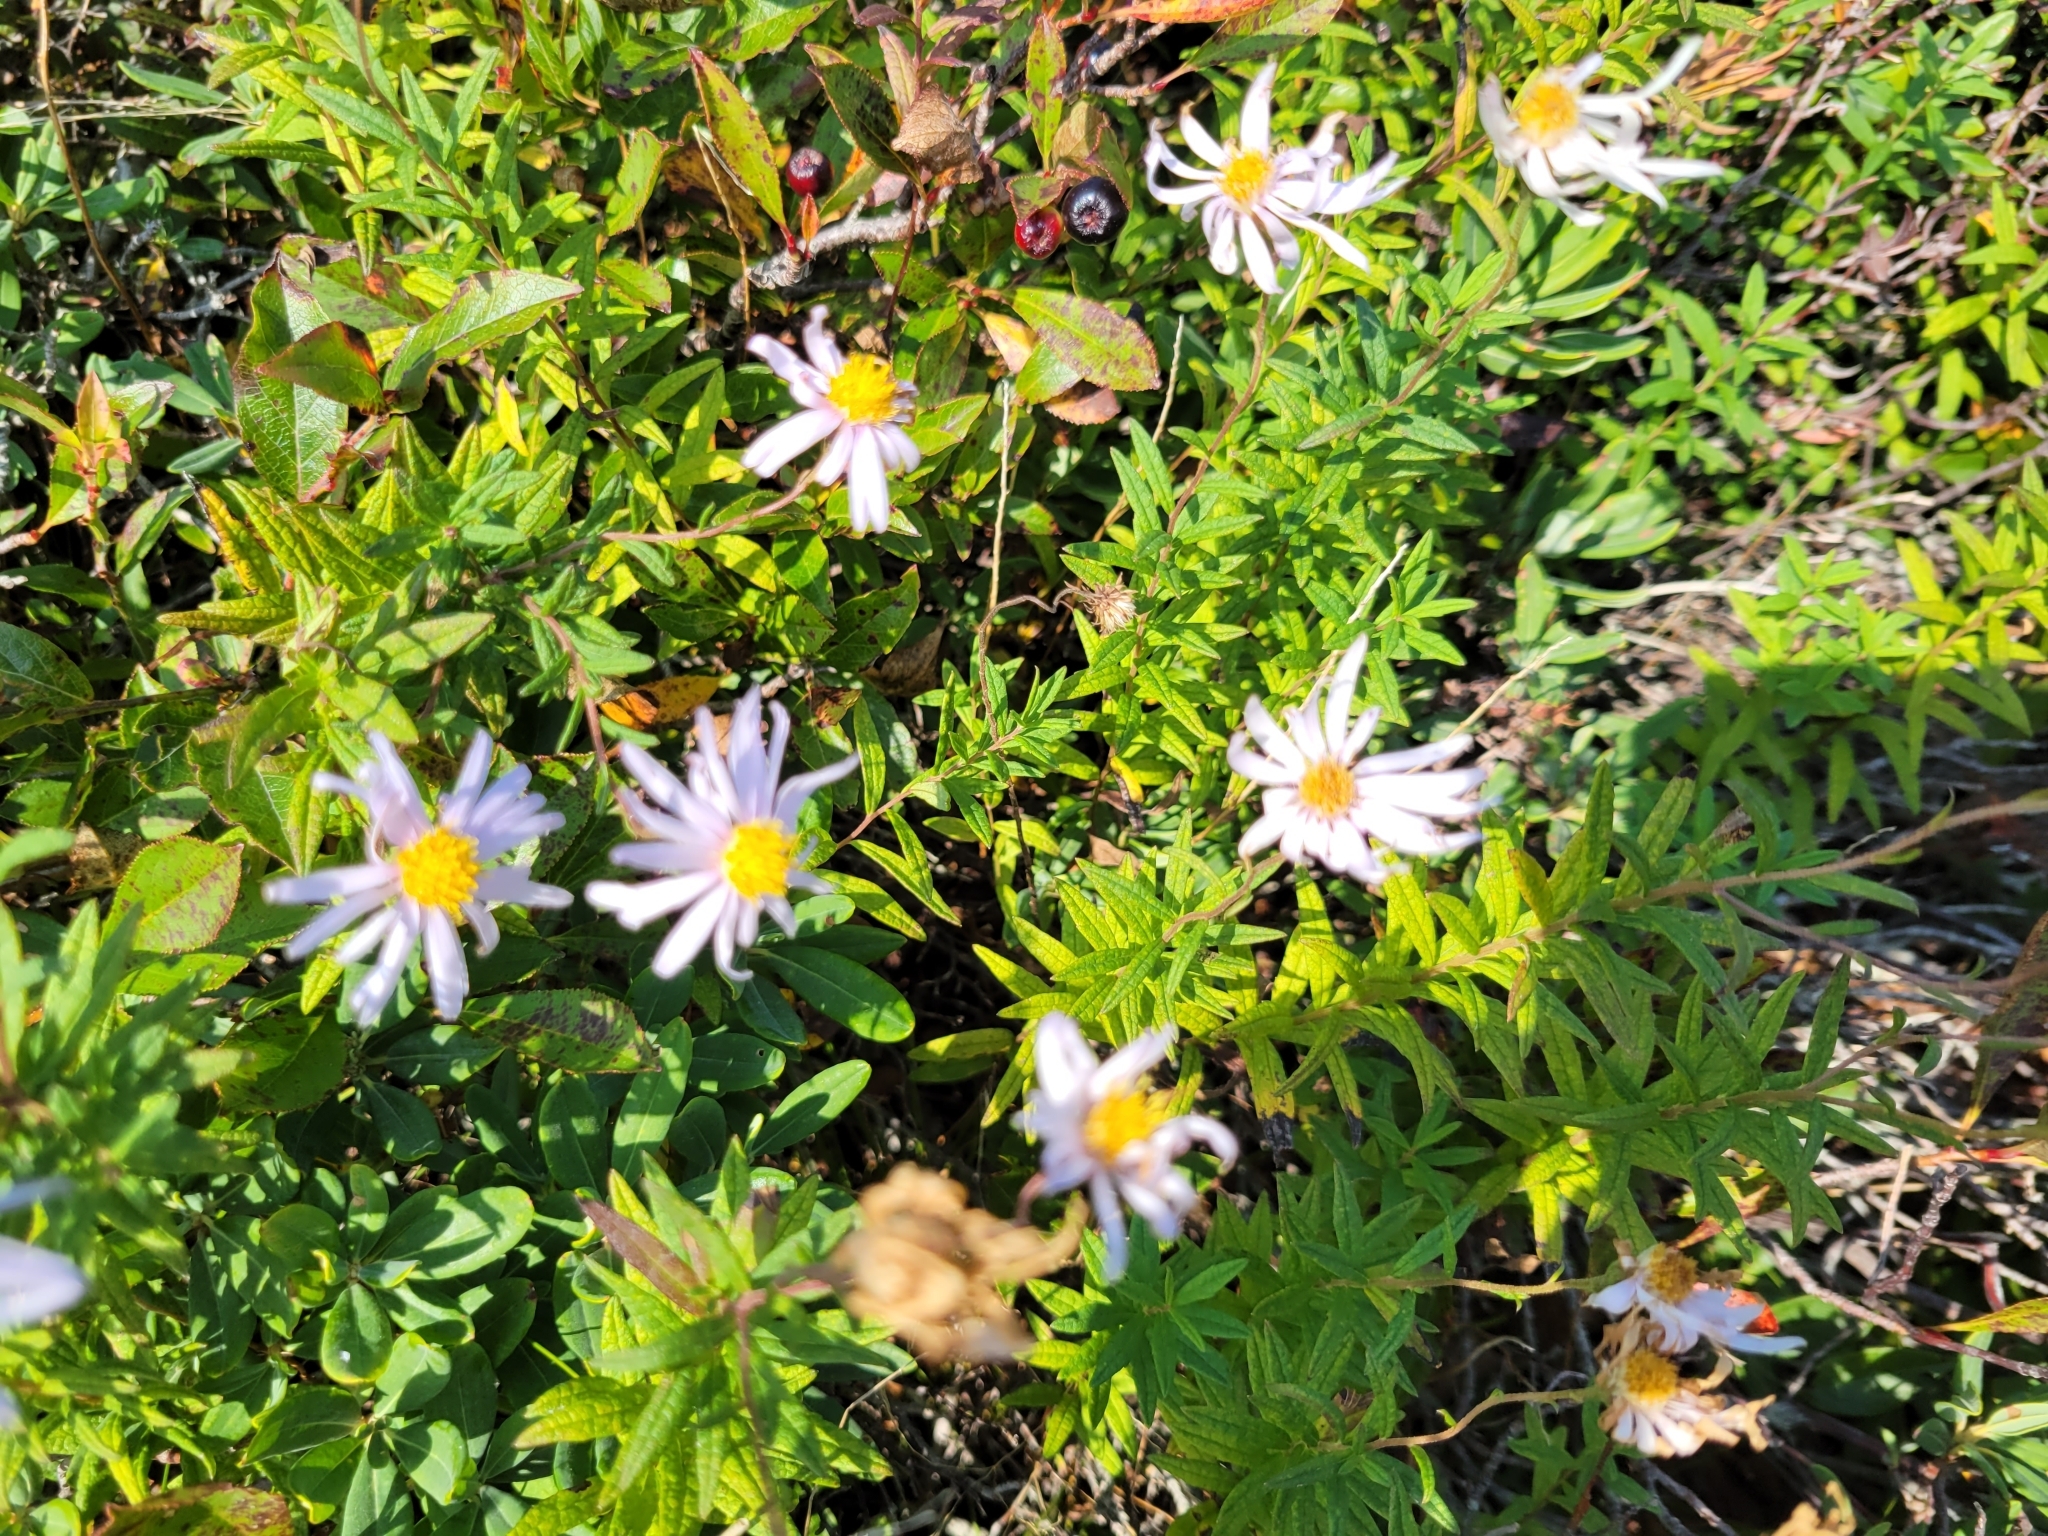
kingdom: Plantae
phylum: Tracheophyta
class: Magnoliopsida
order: Asterales
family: Asteraceae
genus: Oclemena
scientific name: Oclemena nemoralis
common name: Bog aster
